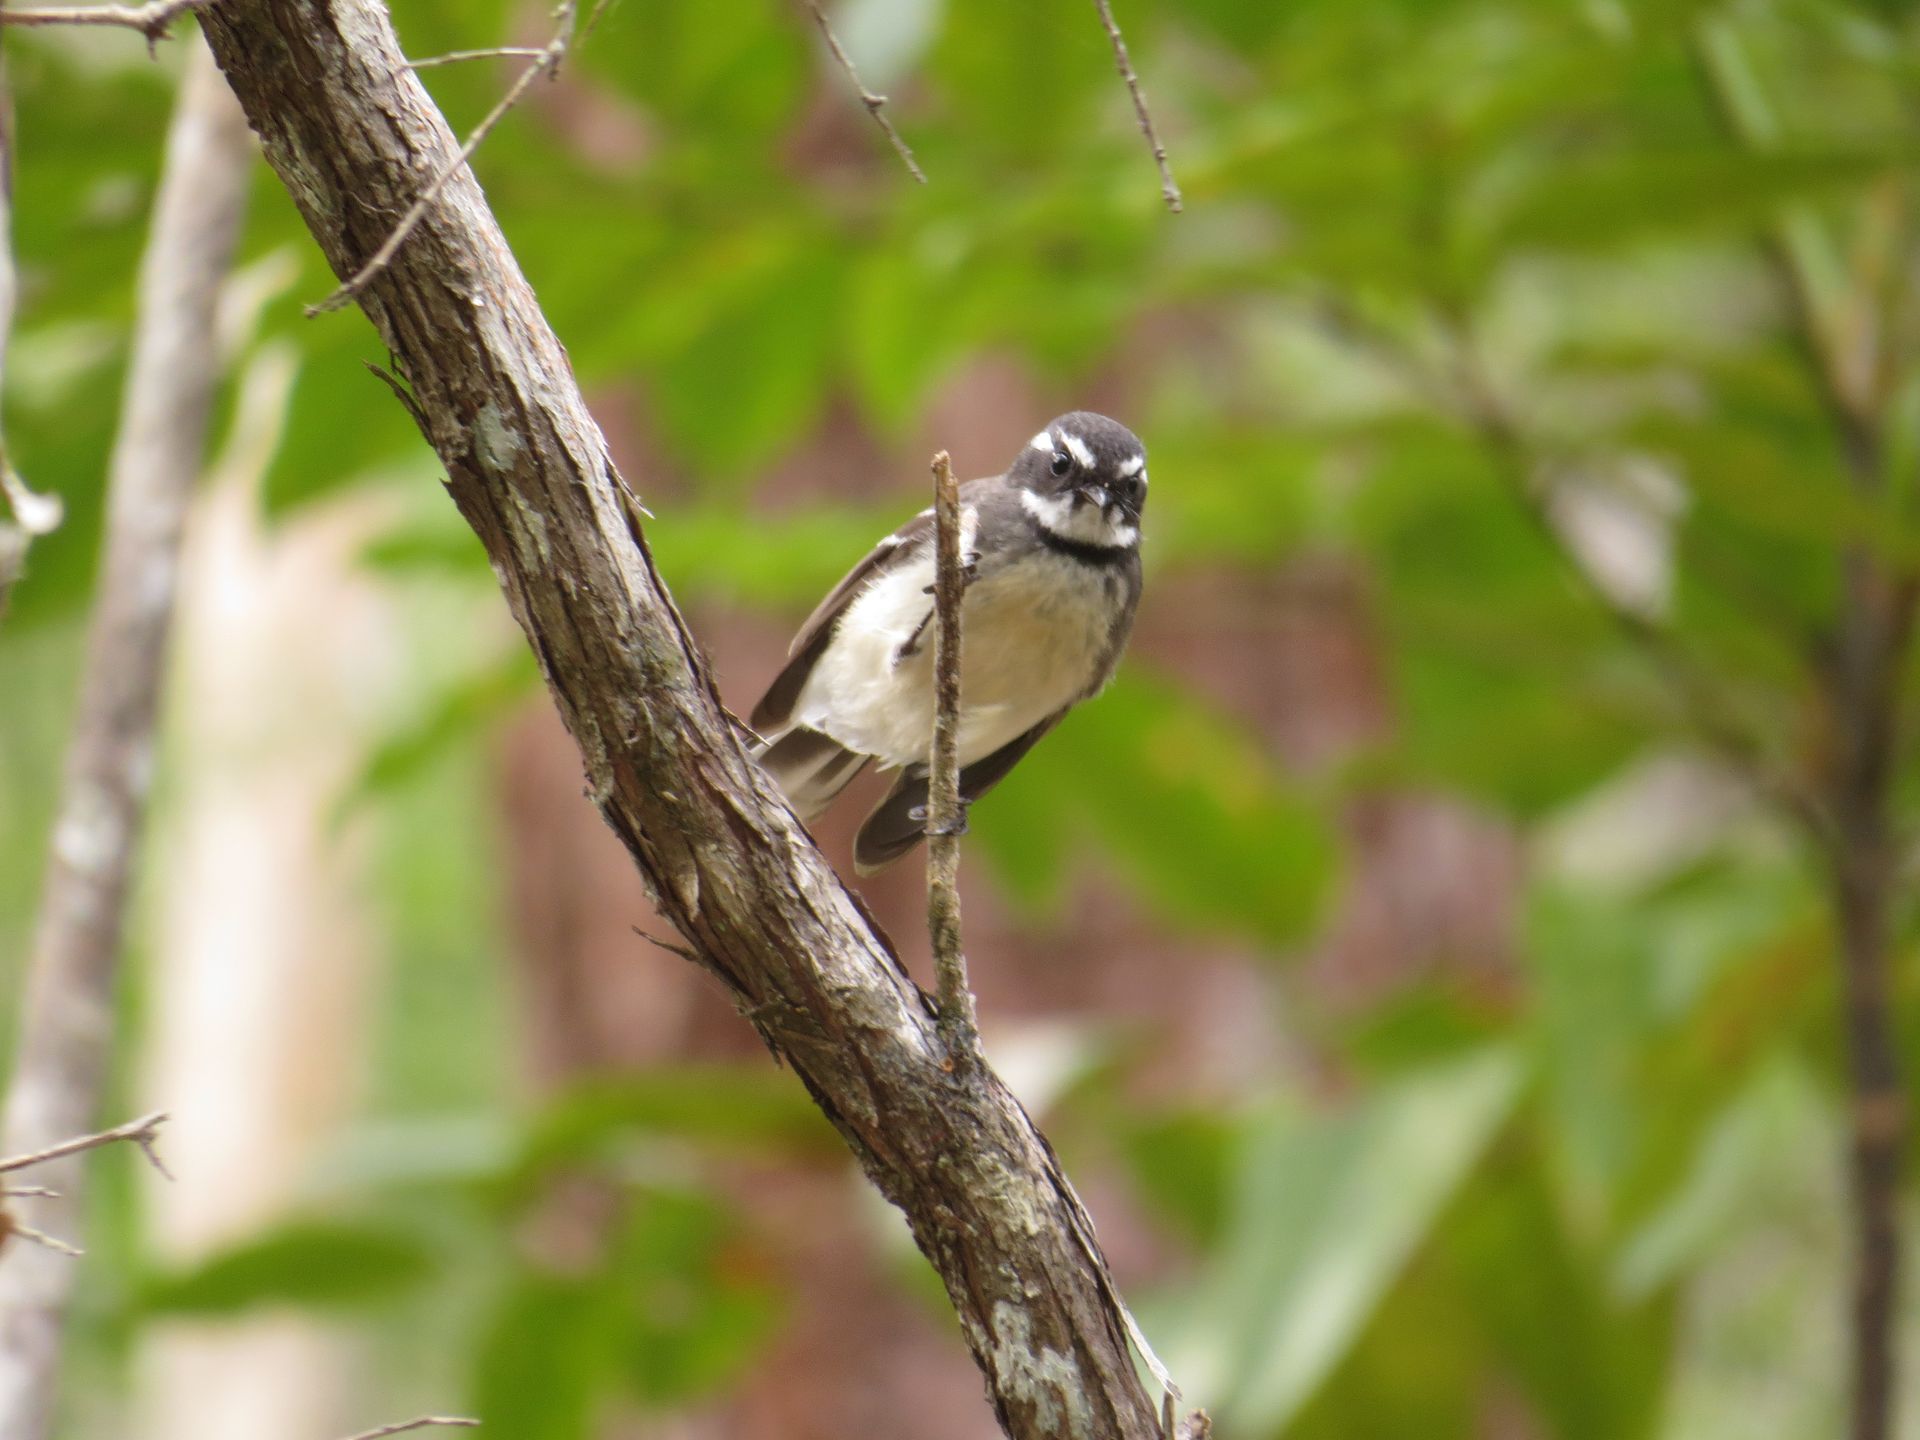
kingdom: Animalia
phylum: Chordata
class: Aves
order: Passeriformes
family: Rhipiduridae
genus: Rhipidura
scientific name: Rhipidura albiscapa
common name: Grey fantail
